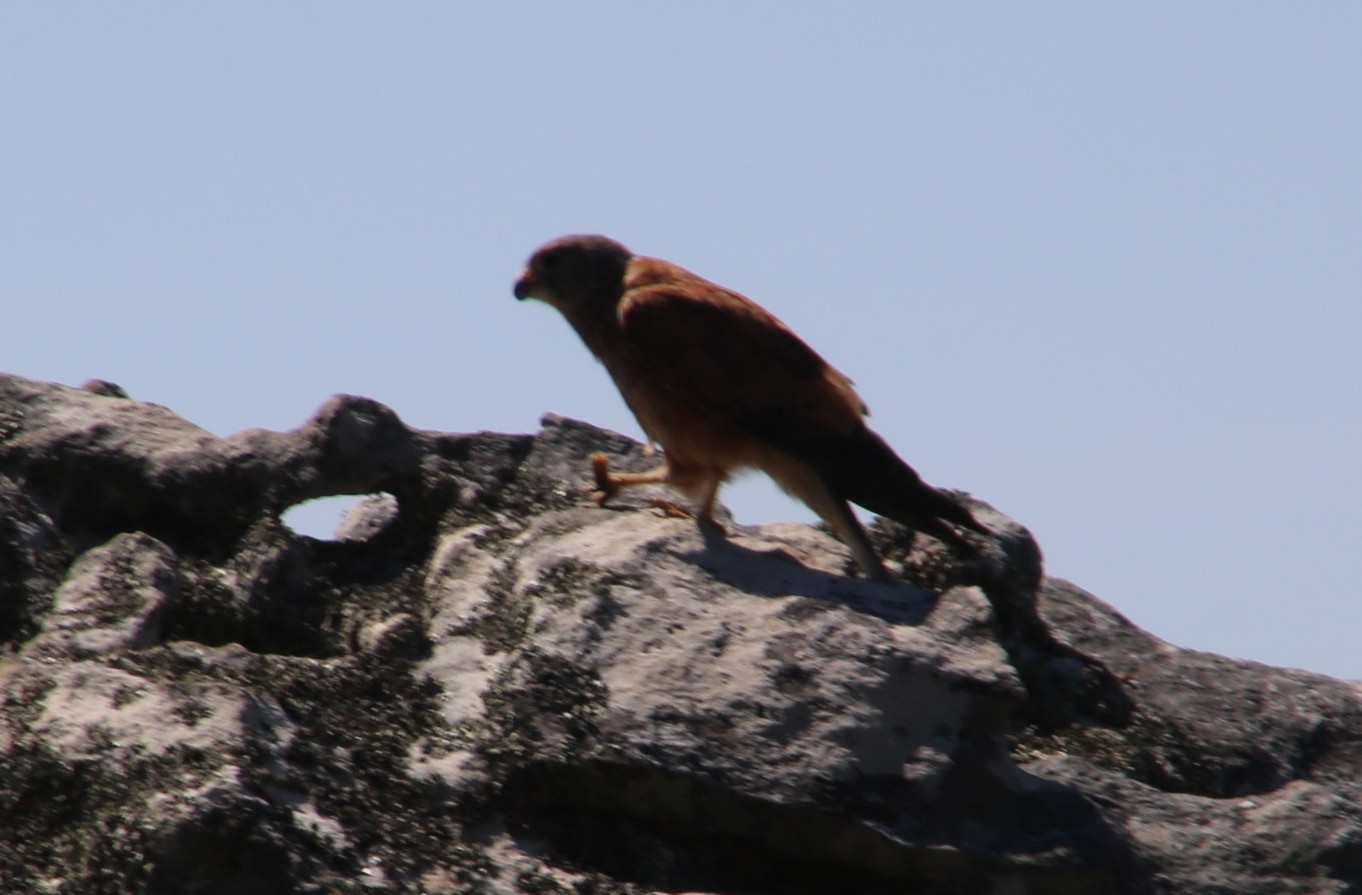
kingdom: Animalia
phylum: Chordata
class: Aves
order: Falconiformes
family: Falconidae
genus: Falco
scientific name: Falco rupicolus
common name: Rock kestrel
